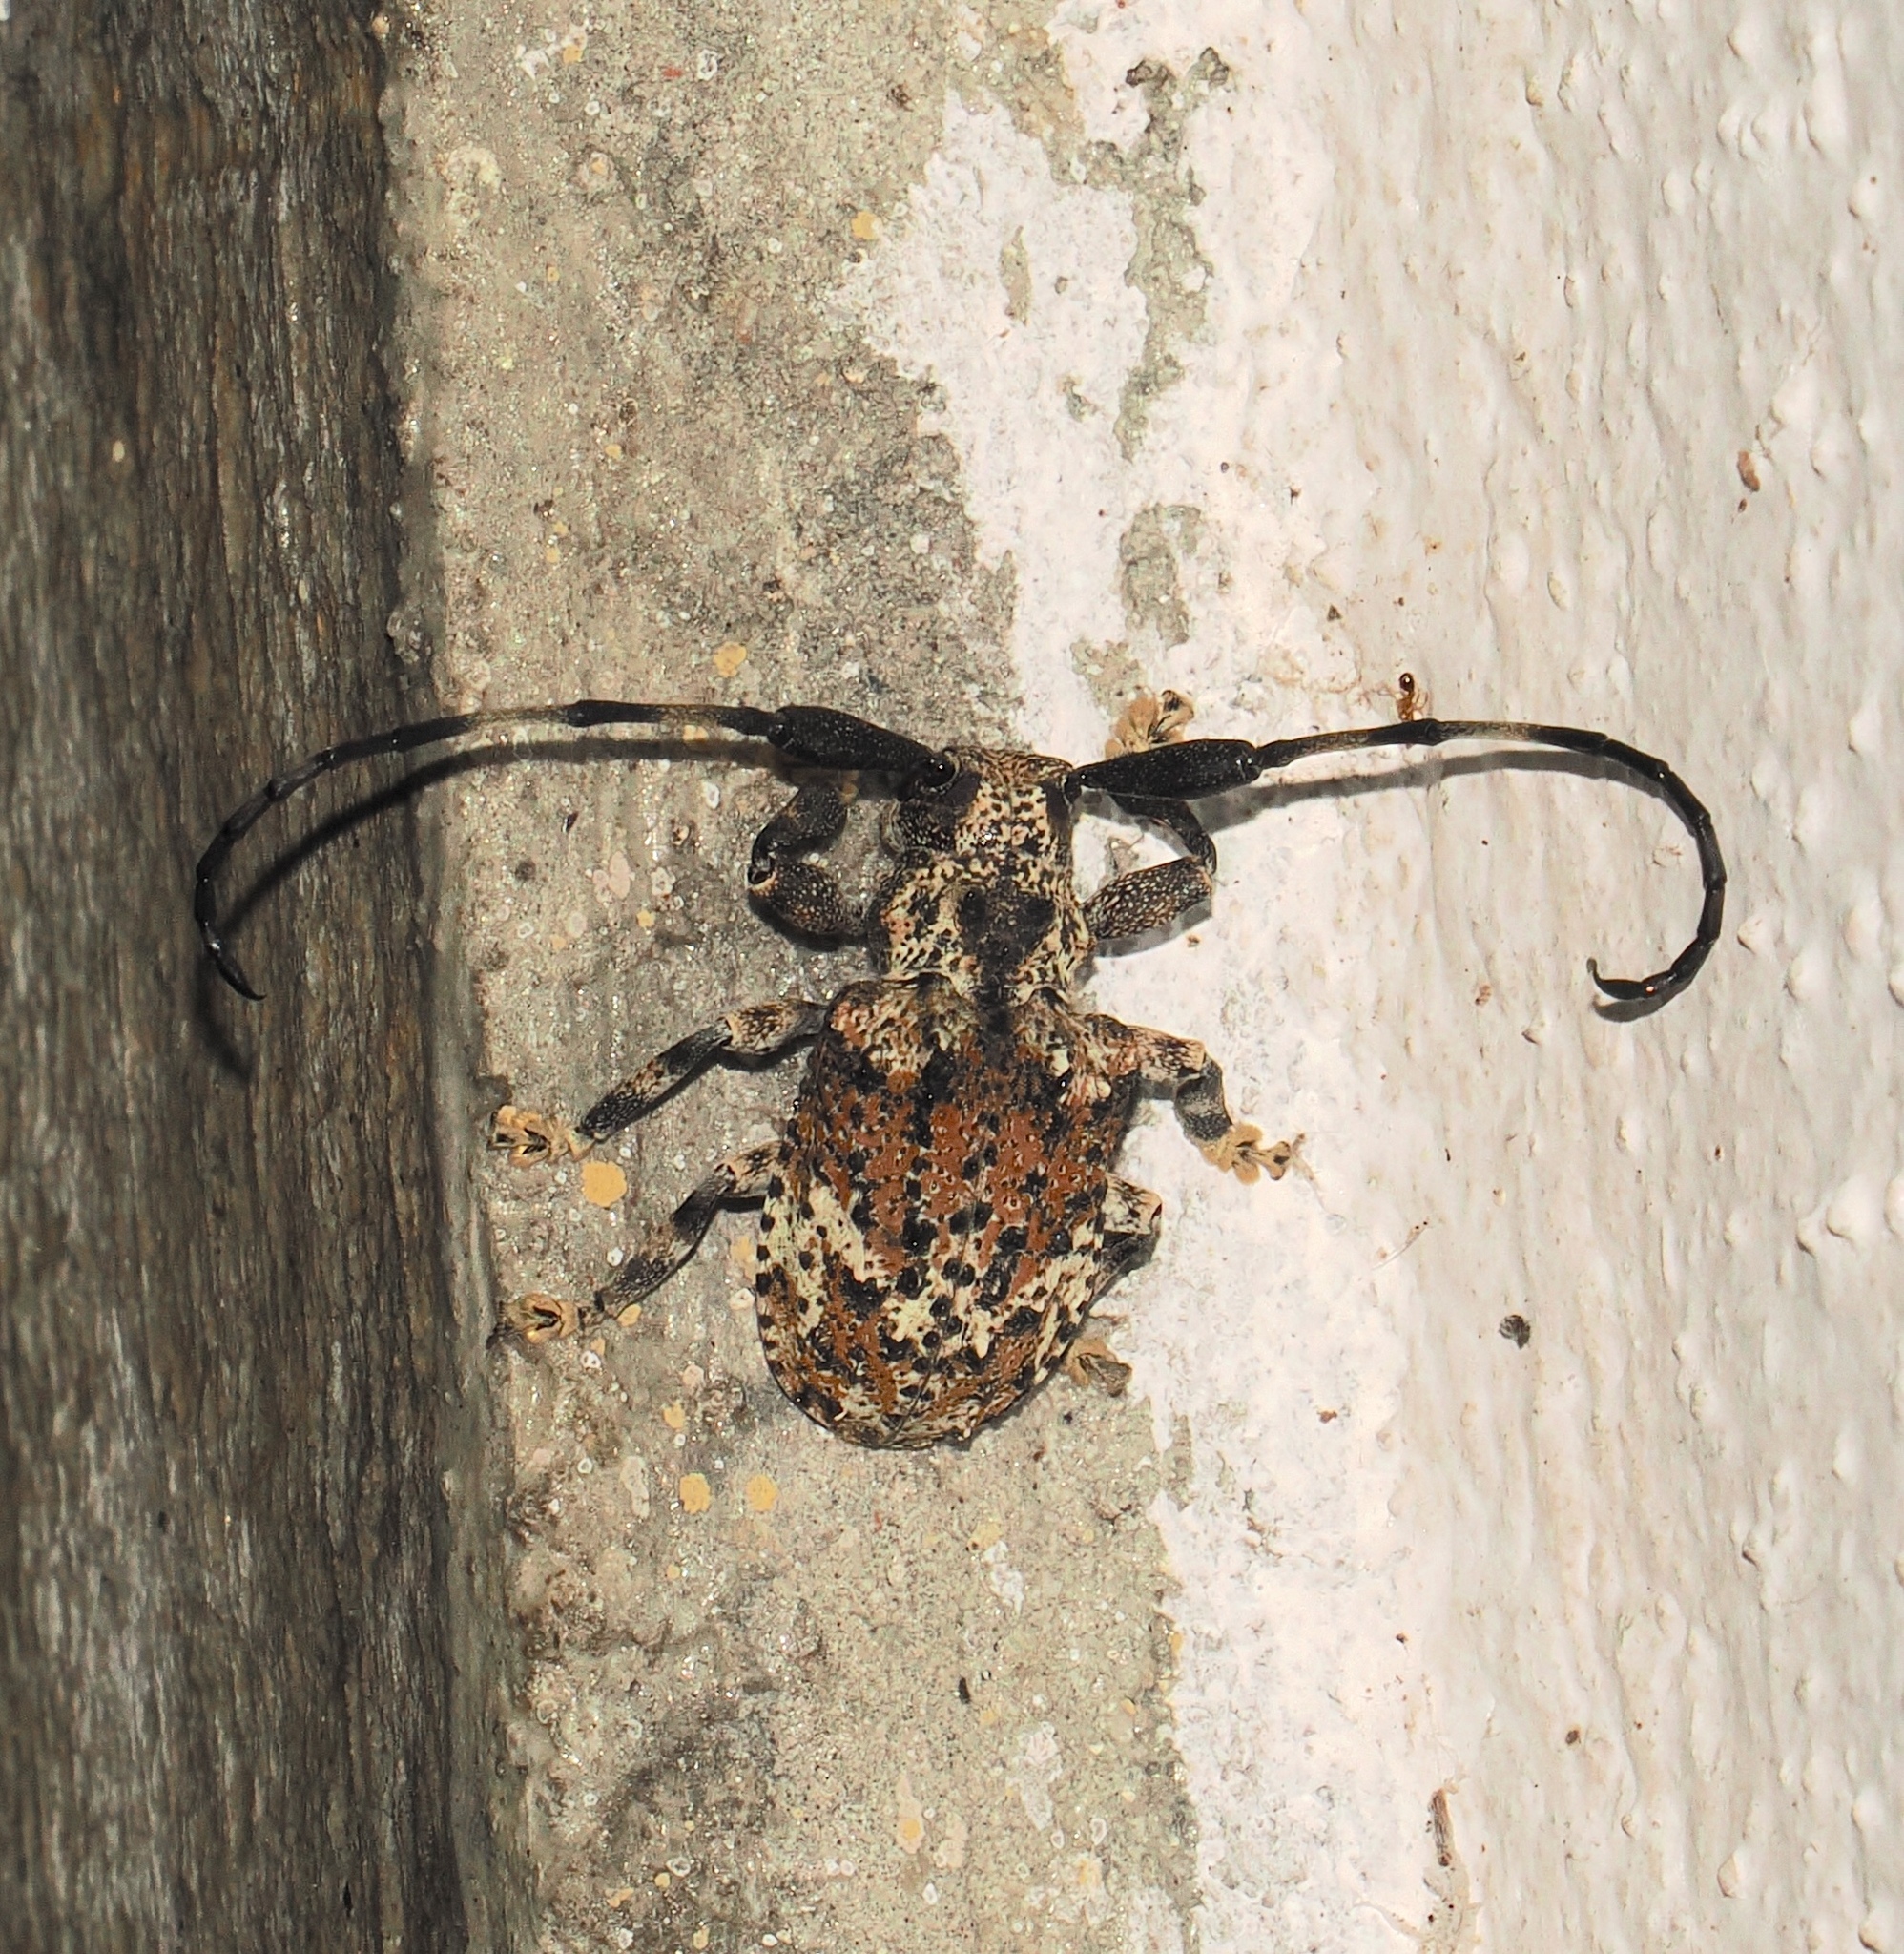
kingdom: Animalia
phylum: Arthropoda
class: Insecta
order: Coleoptera
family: Cerambycidae
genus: Onychocerus
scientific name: Onychocerus albitarsis
